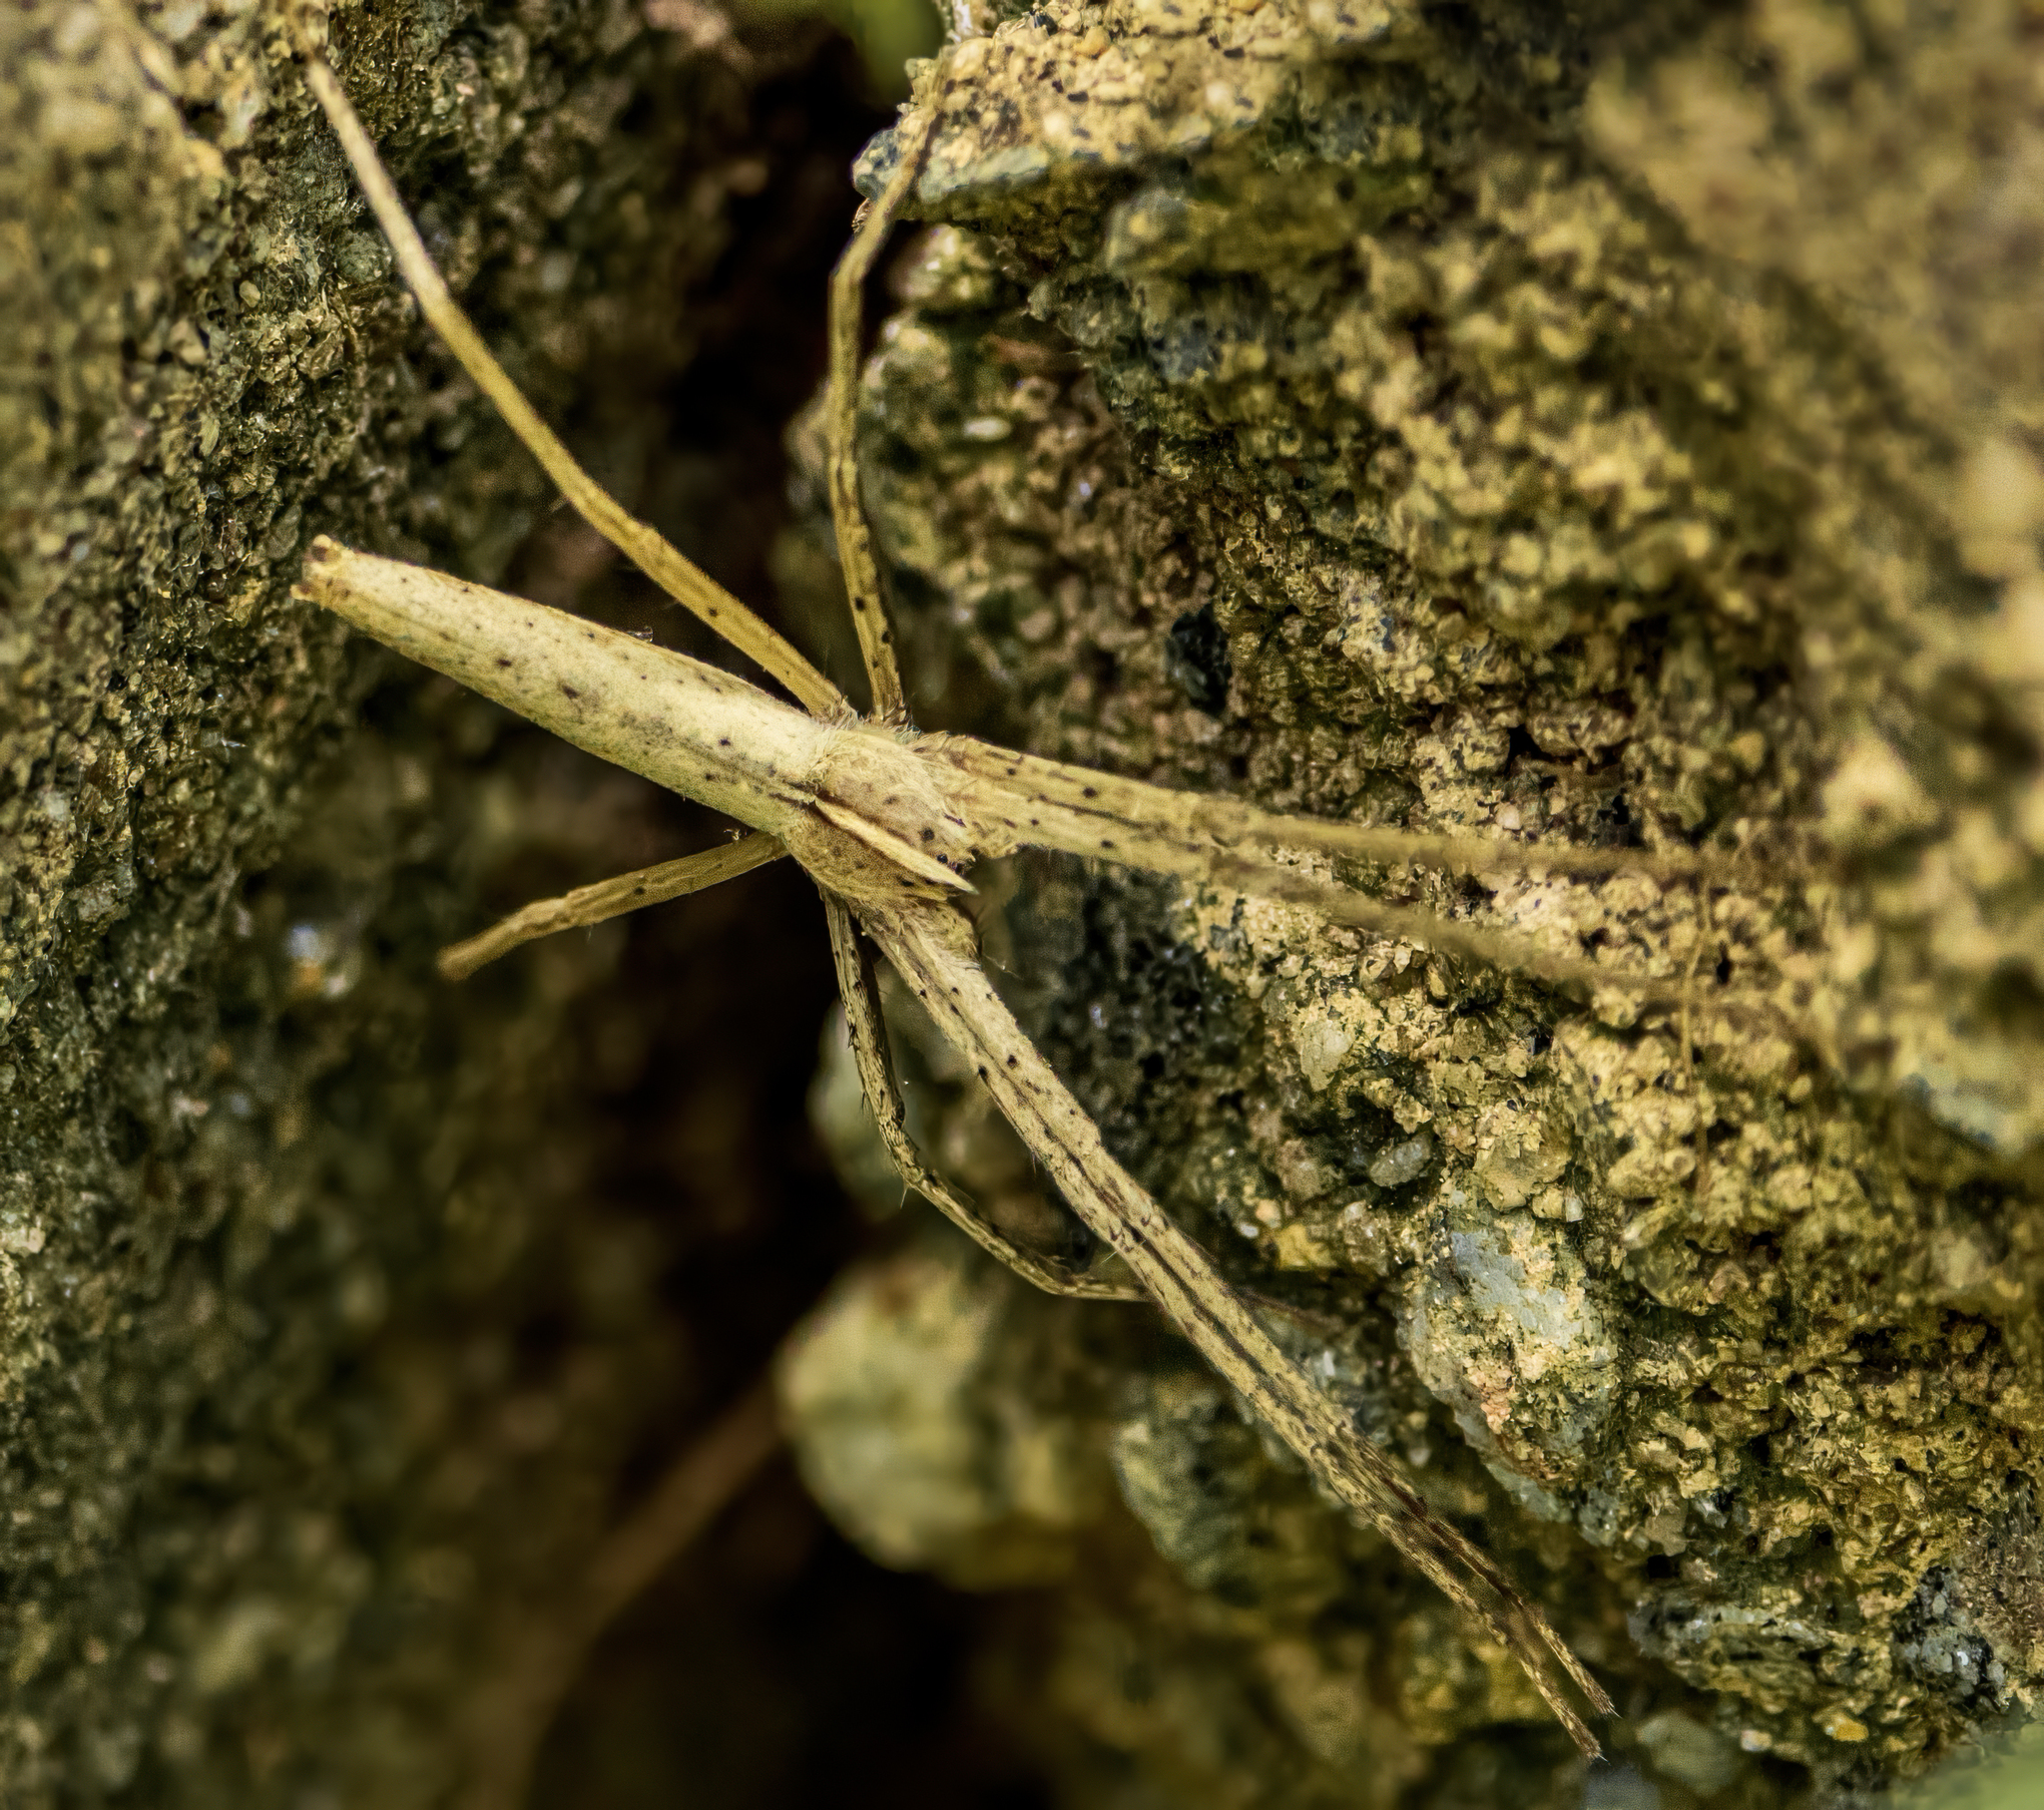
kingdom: Animalia
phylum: Arthropoda
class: Arachnida
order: Araneae
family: Pisauridae
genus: Pisaurina
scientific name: Pisaurina dubia
